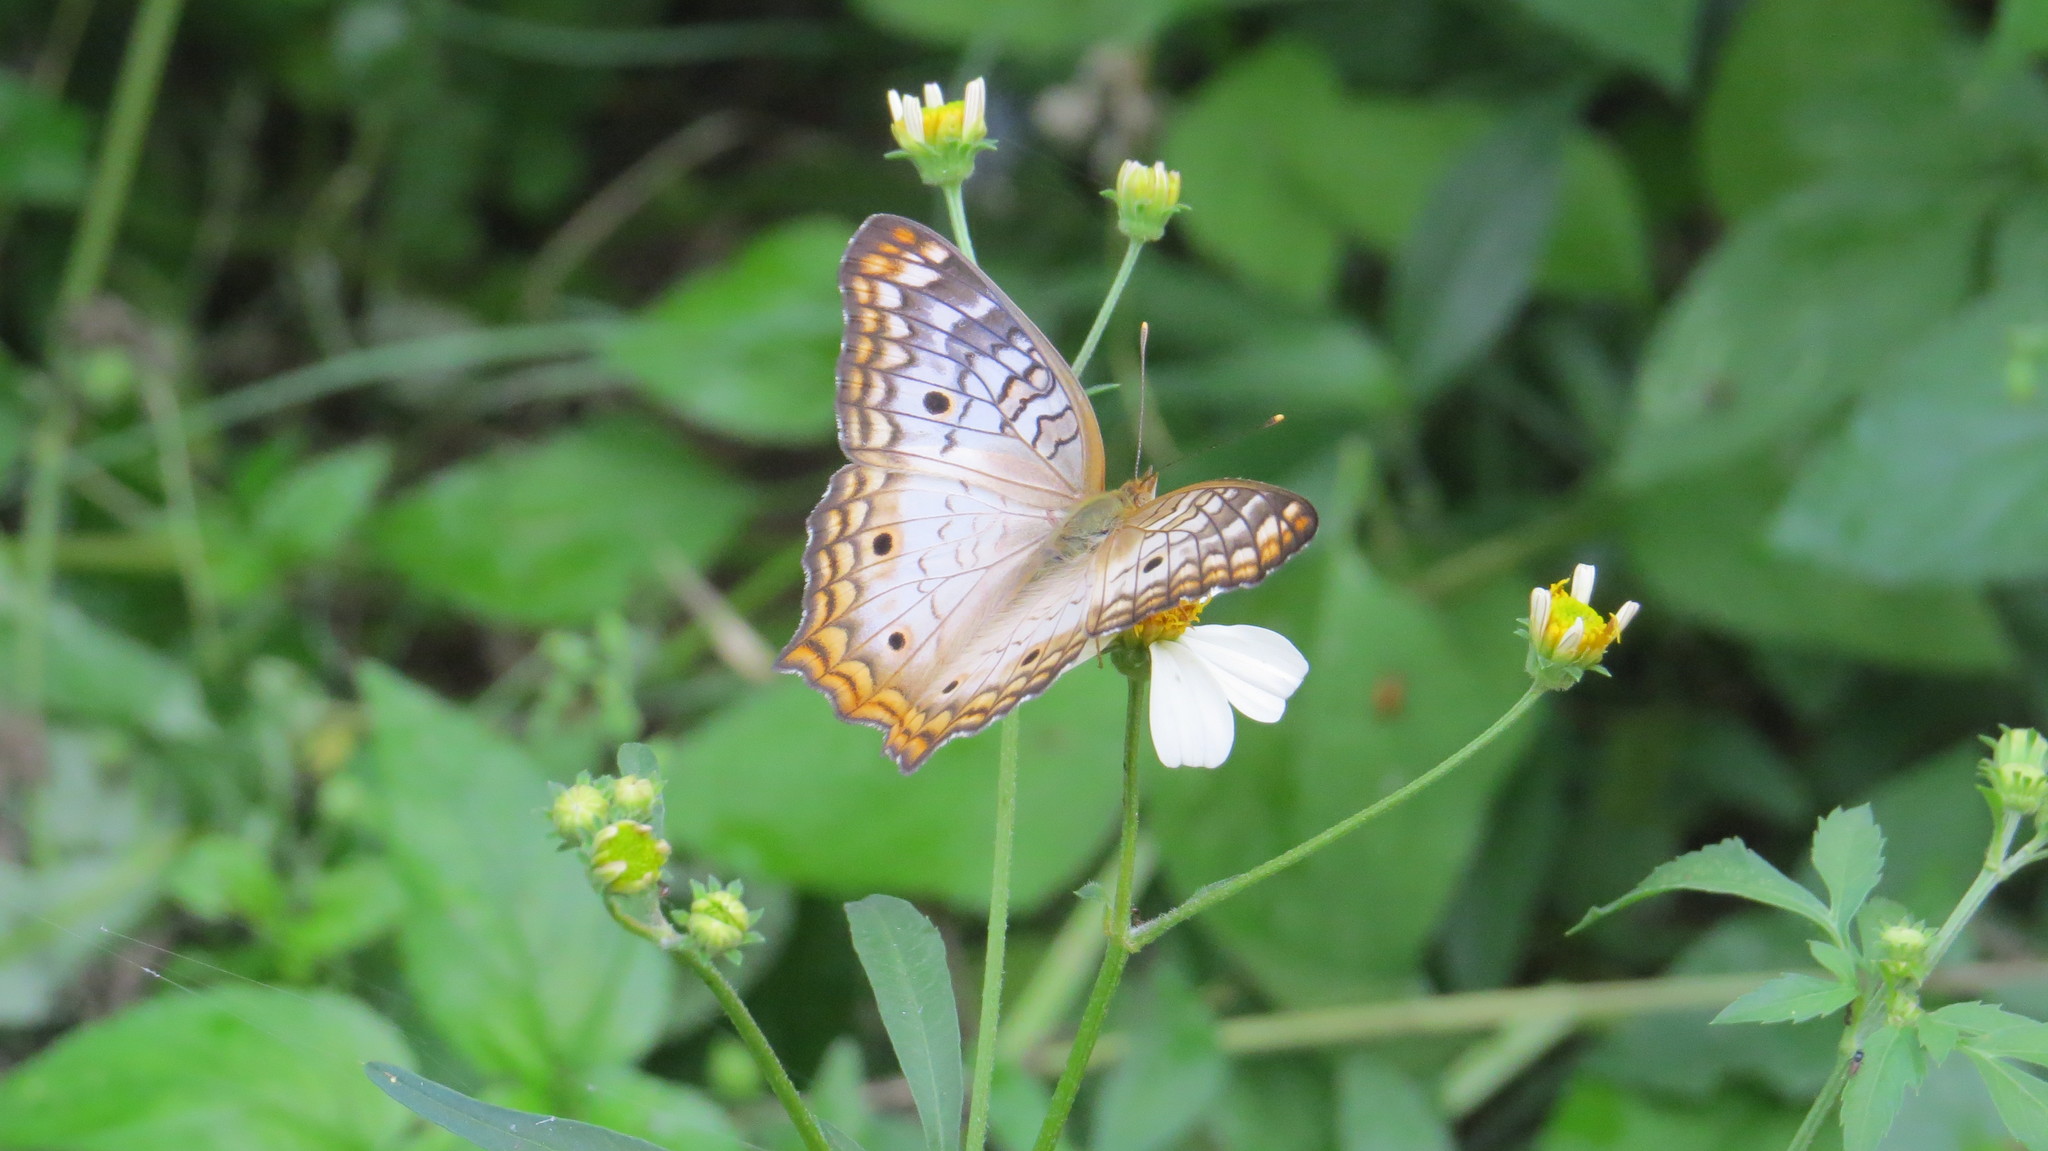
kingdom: Animalia
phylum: Arthropoda
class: Insecta
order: Lepidoptera
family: Nymphalidae
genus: Anartia
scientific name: Anartia jatrophae
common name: White peacock
